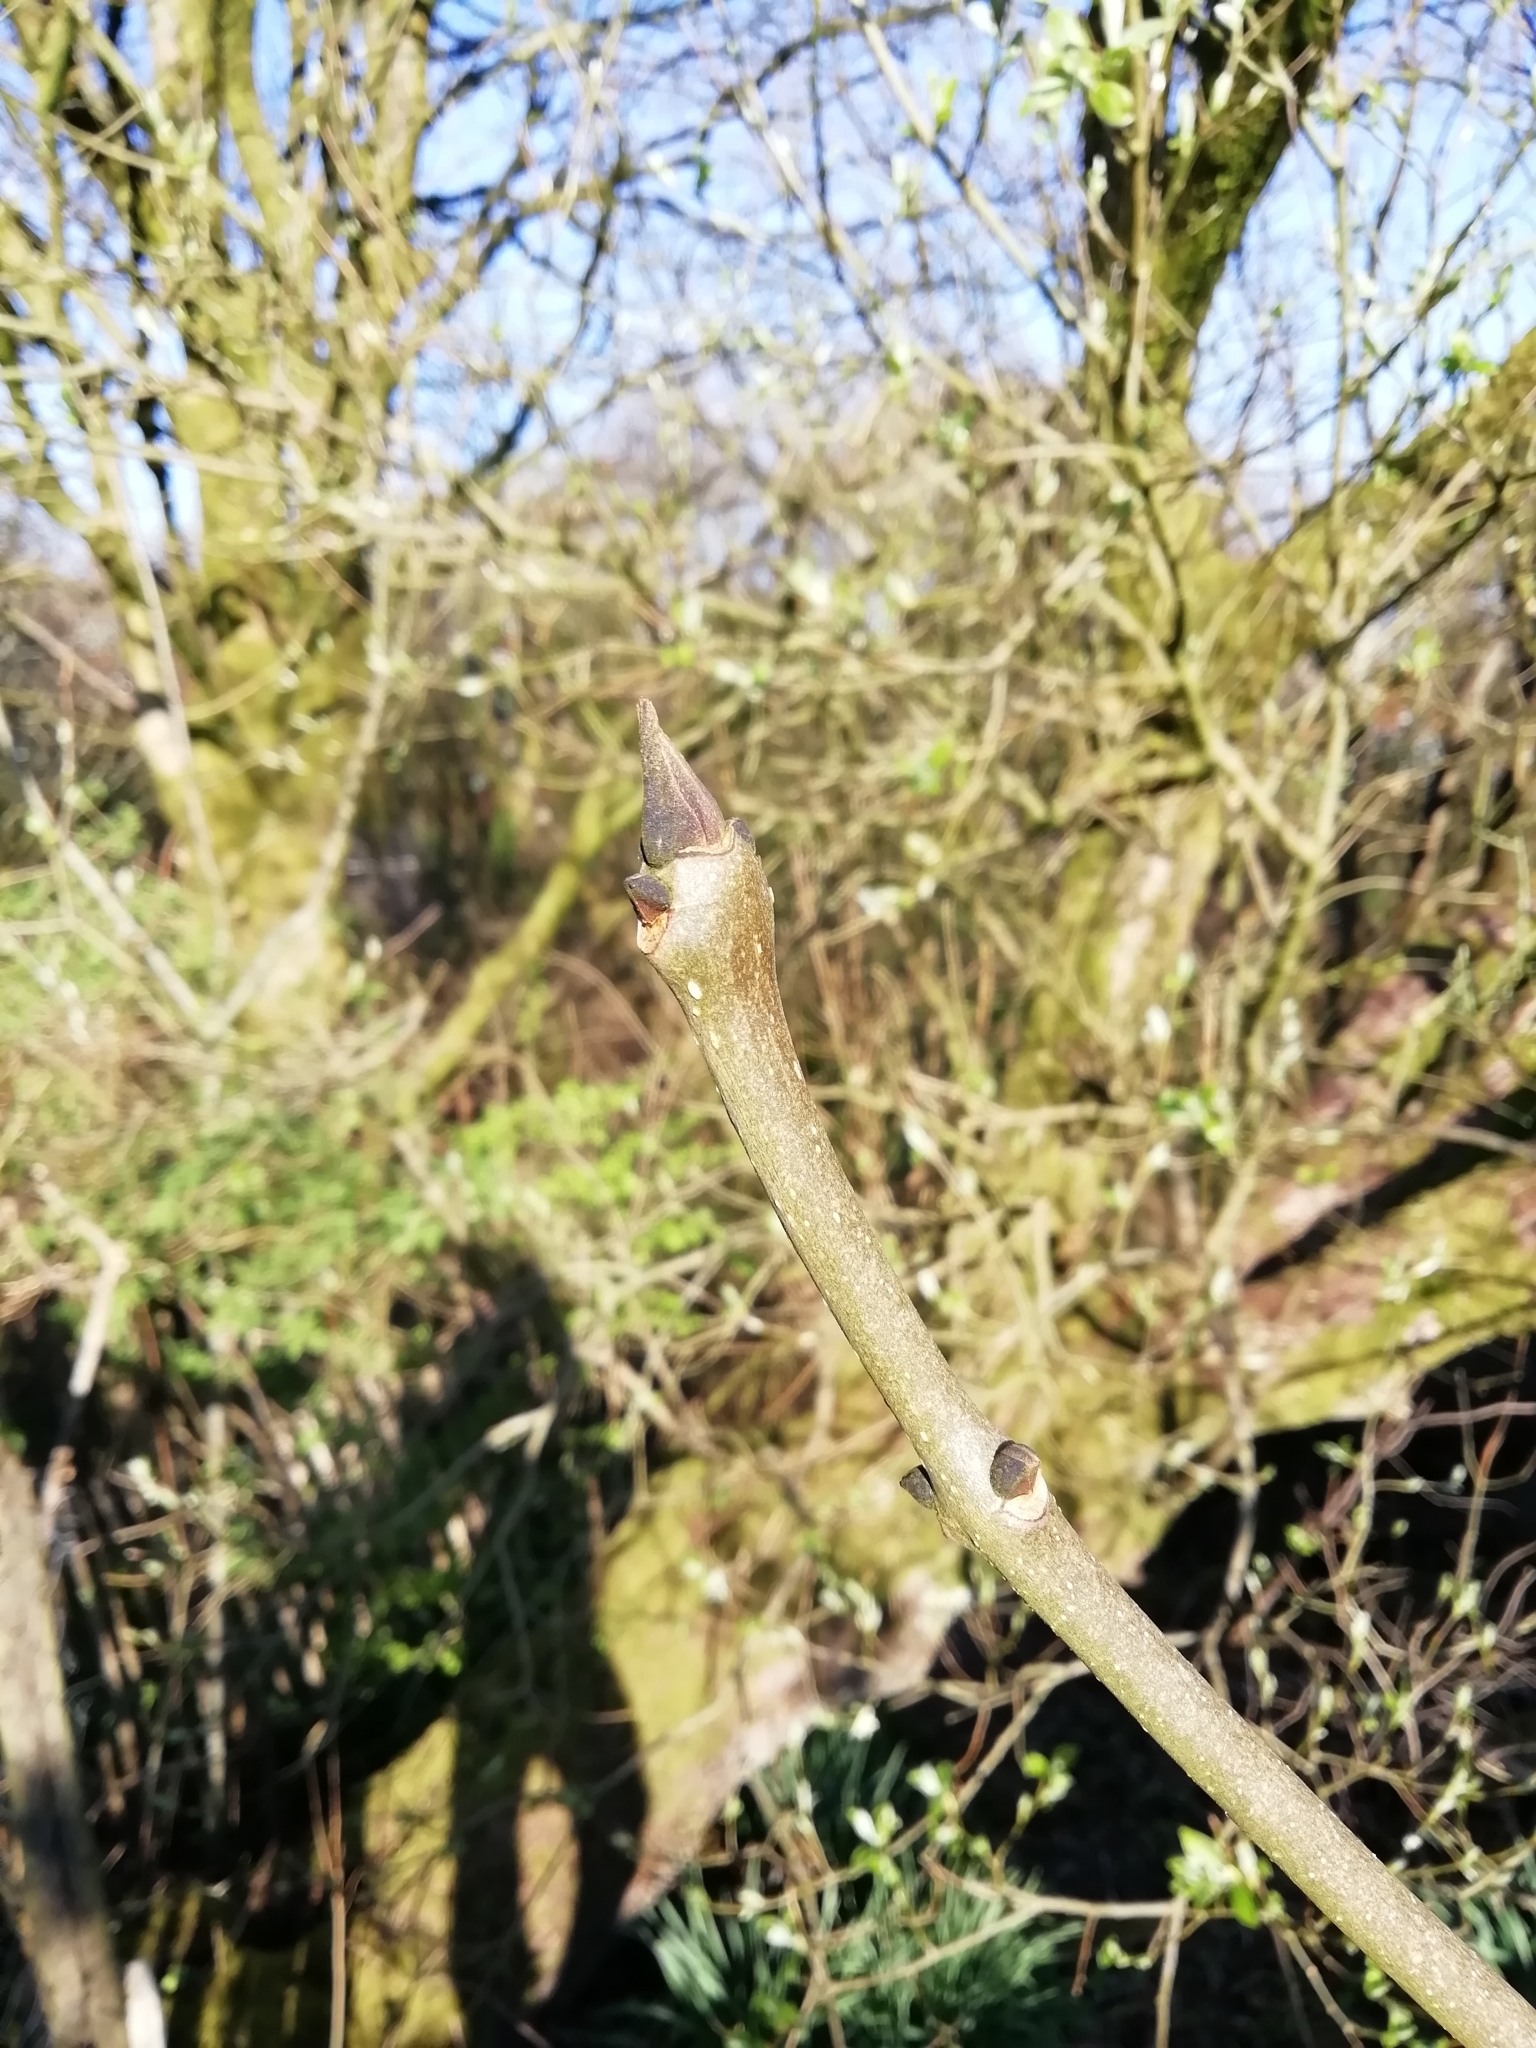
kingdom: Plantae
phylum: Tracheophyta
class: Magnoliopsida
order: Lamiales
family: Oleaceae
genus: Fraxinus
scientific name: Fraxinus excelsior
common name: European ash
